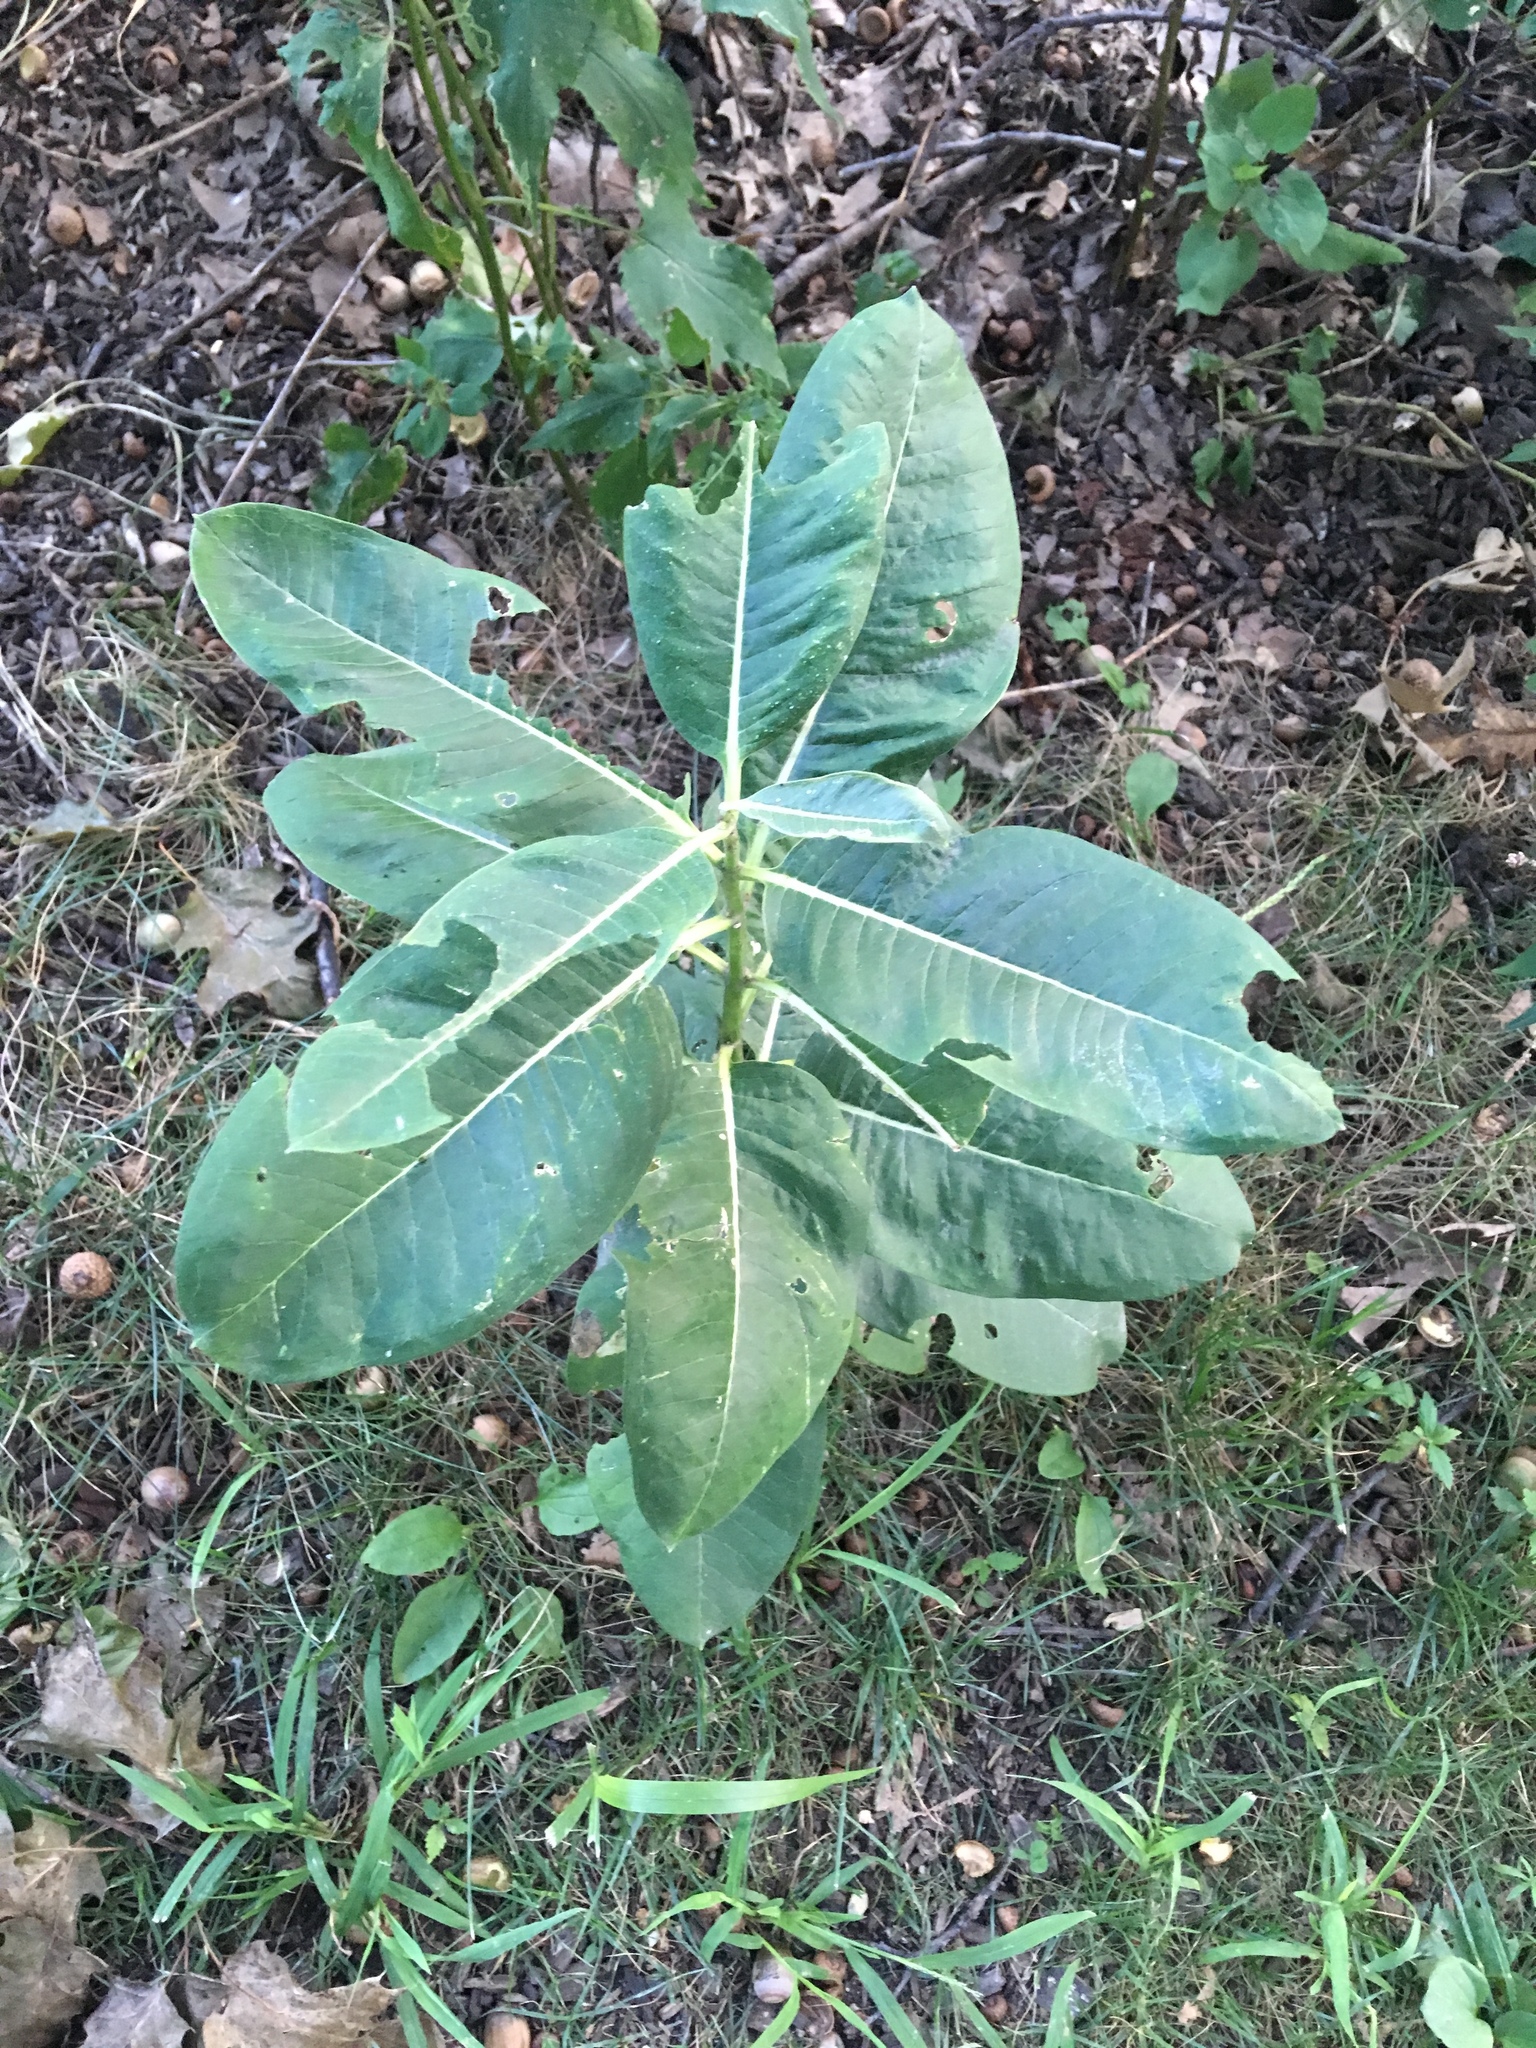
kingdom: Plantae
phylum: Tracheophyta
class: Magnoliopsida
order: Gentianales
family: Apocynaceae
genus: Asclepias
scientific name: Asclepias syriaca
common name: Common milkweed
